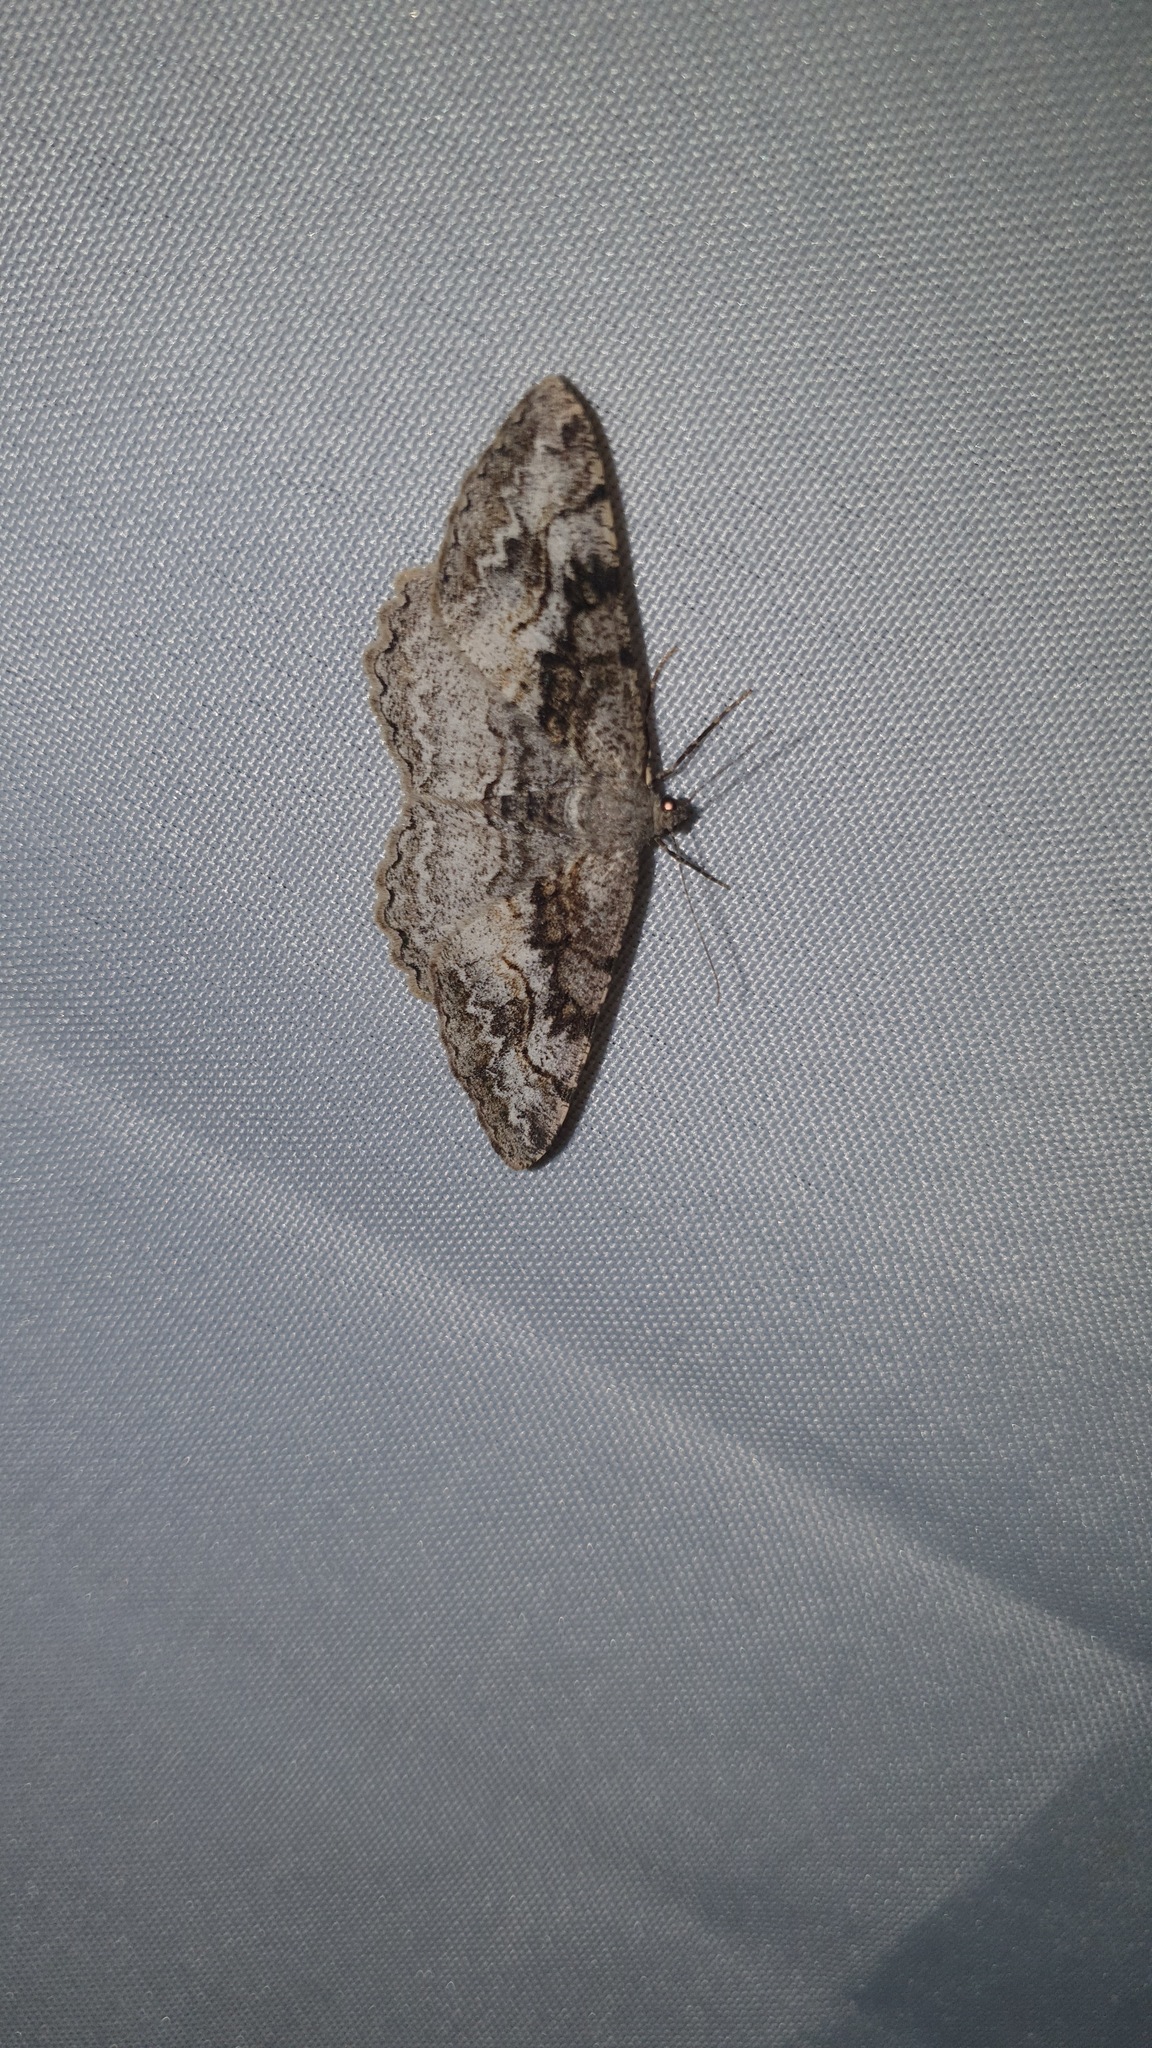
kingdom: Animalia
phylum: Arthropoda
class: Insecta
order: Lepidoptera
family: Geometridae
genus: Alcis
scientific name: Alcis repandata
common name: Mottled beauty
